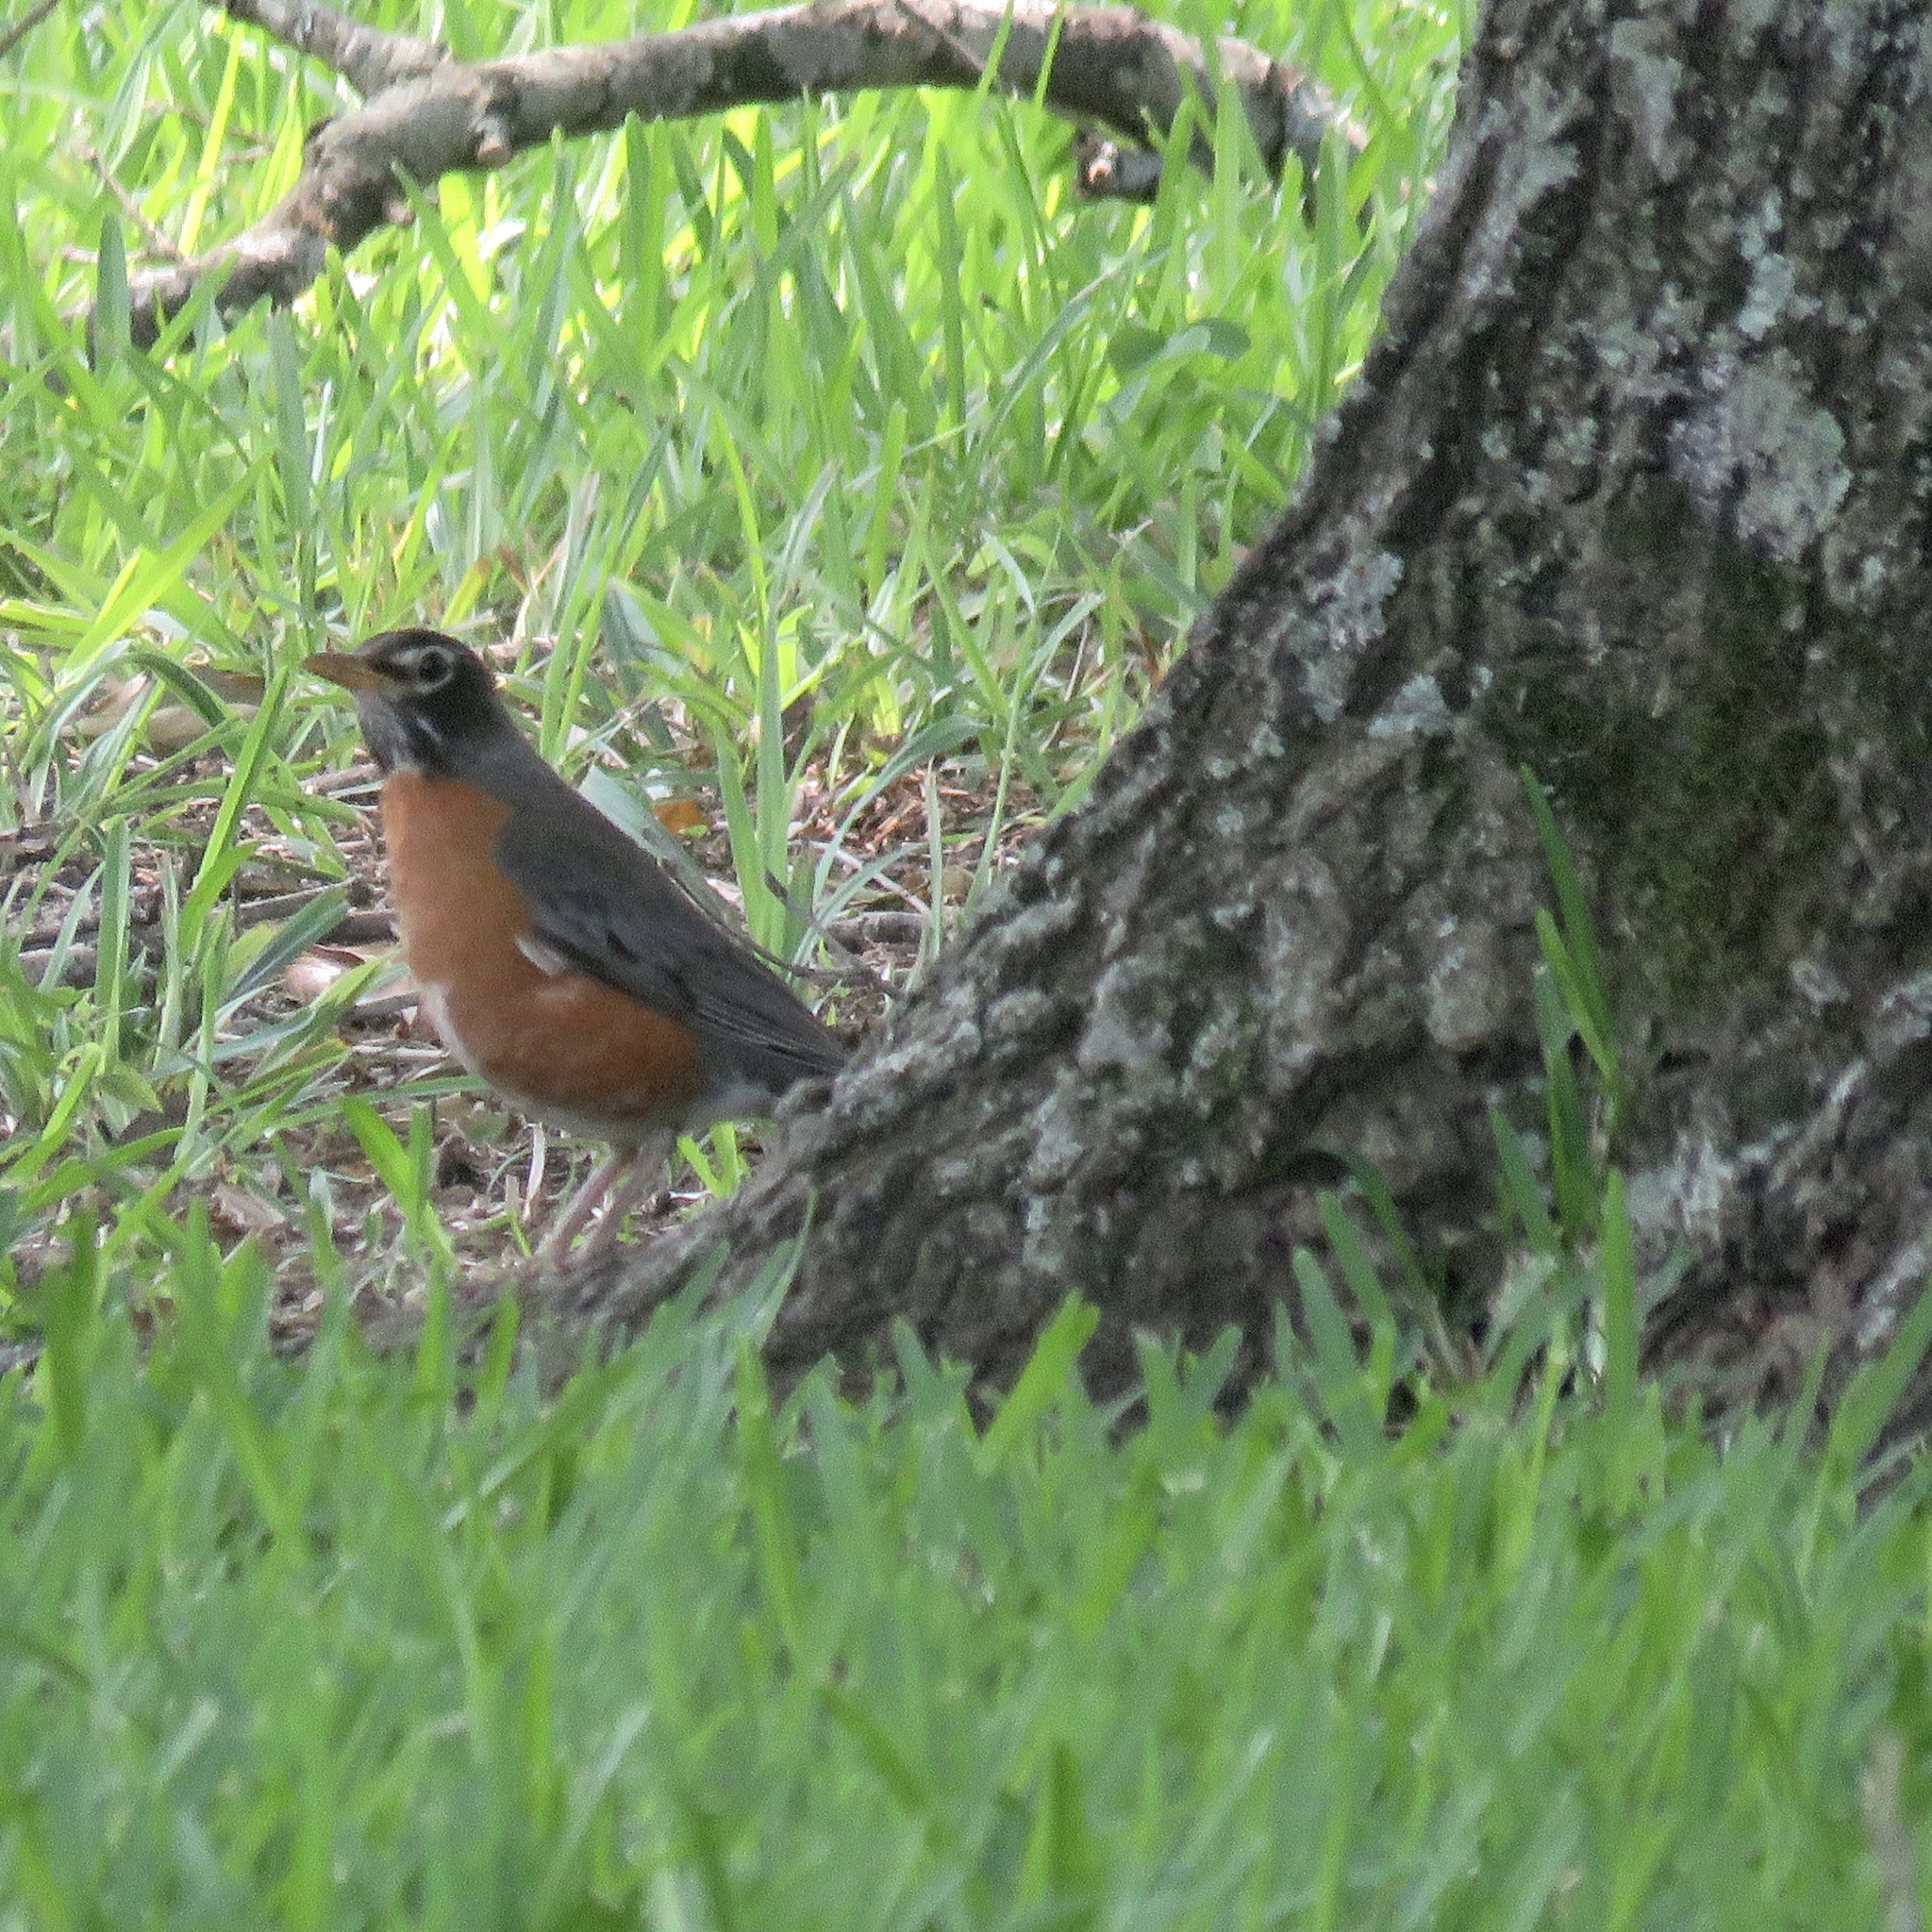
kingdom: Animalia
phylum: Chordata
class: Aves
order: Passeriformes
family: Turdidae
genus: Turdus
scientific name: Turdus migratorius
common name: American robin
